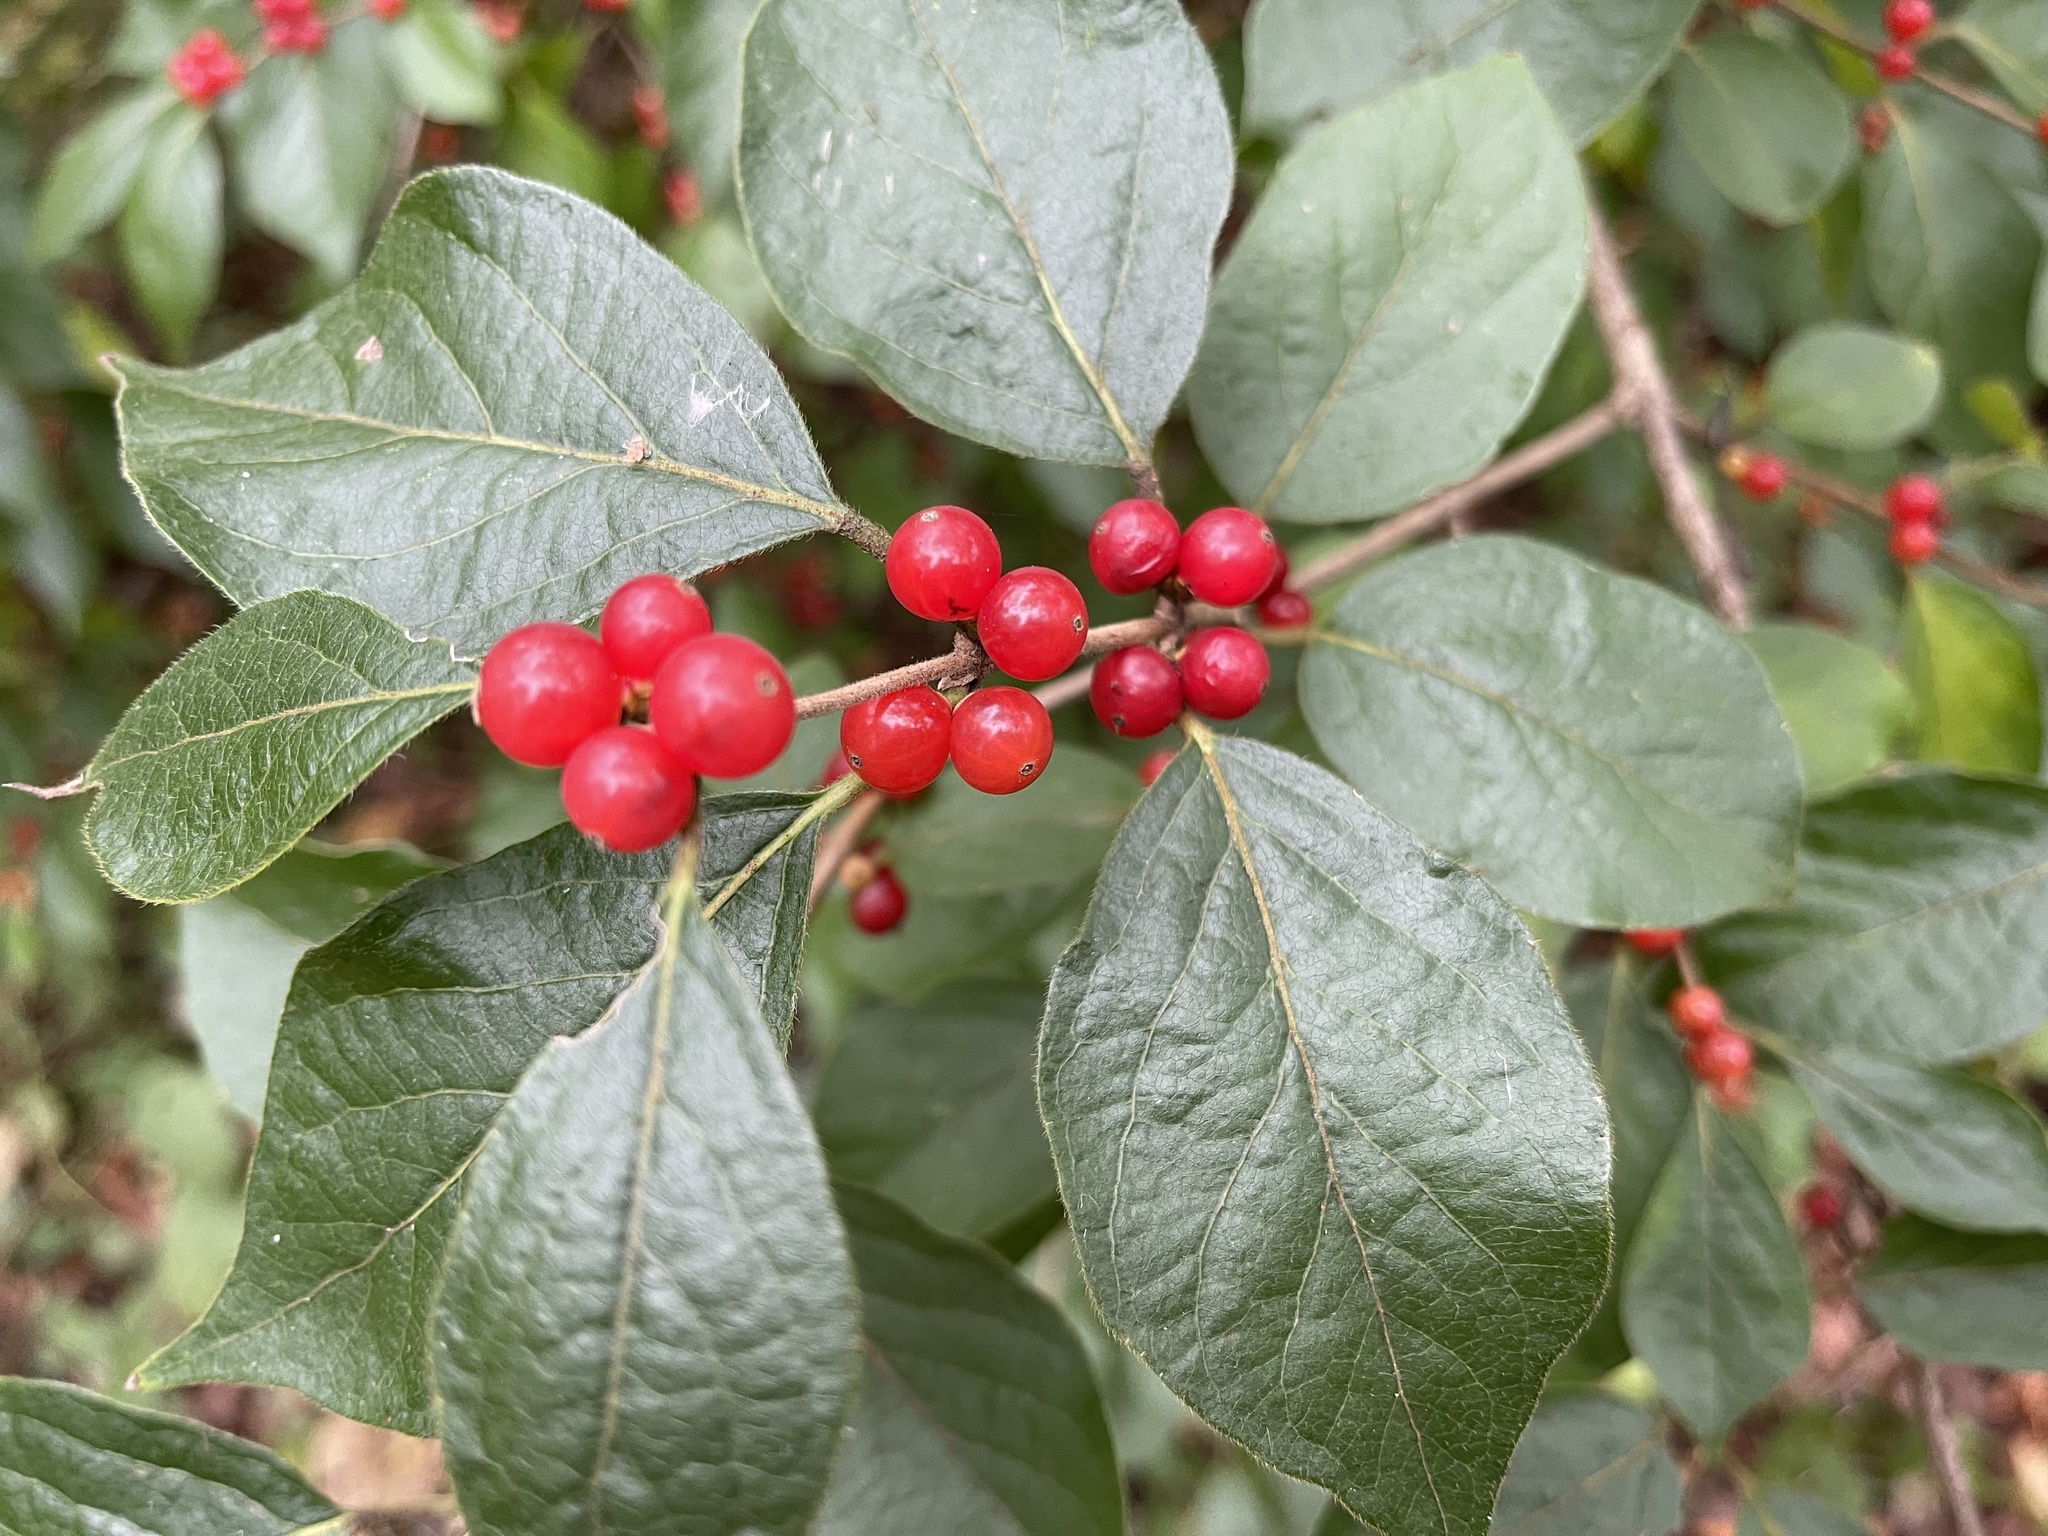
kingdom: Plantae
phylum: Tracheophyta
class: Magnoliopsida
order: Dipsacales
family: Caprifoliaceae
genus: Lonicera
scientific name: Lonicera maackii
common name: Amur honeysuckle
